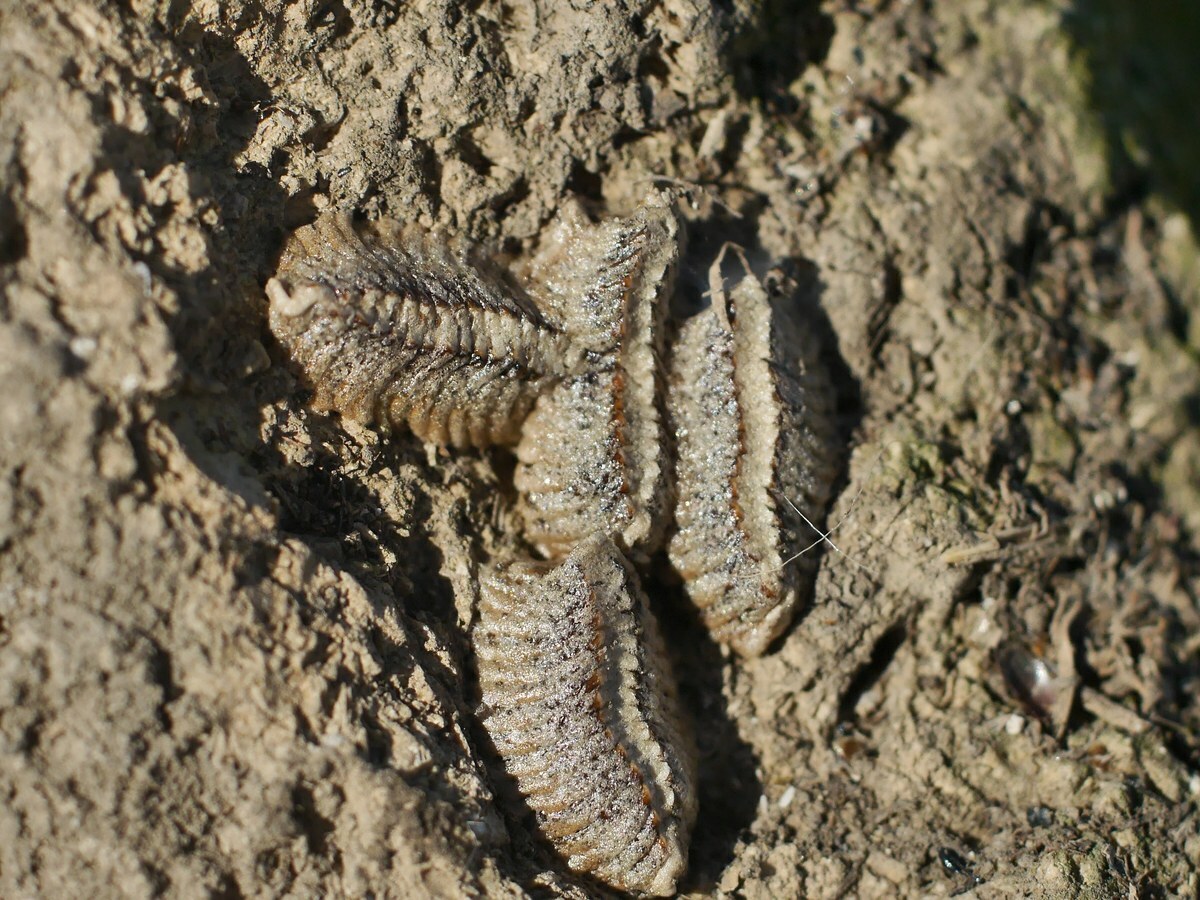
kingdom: Animalia
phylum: Arthropoda
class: Insecta
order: Mantodea
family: Amelidae
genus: Ameles
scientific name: Ameles heldreichi
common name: Heldreich's dwarf mantis
